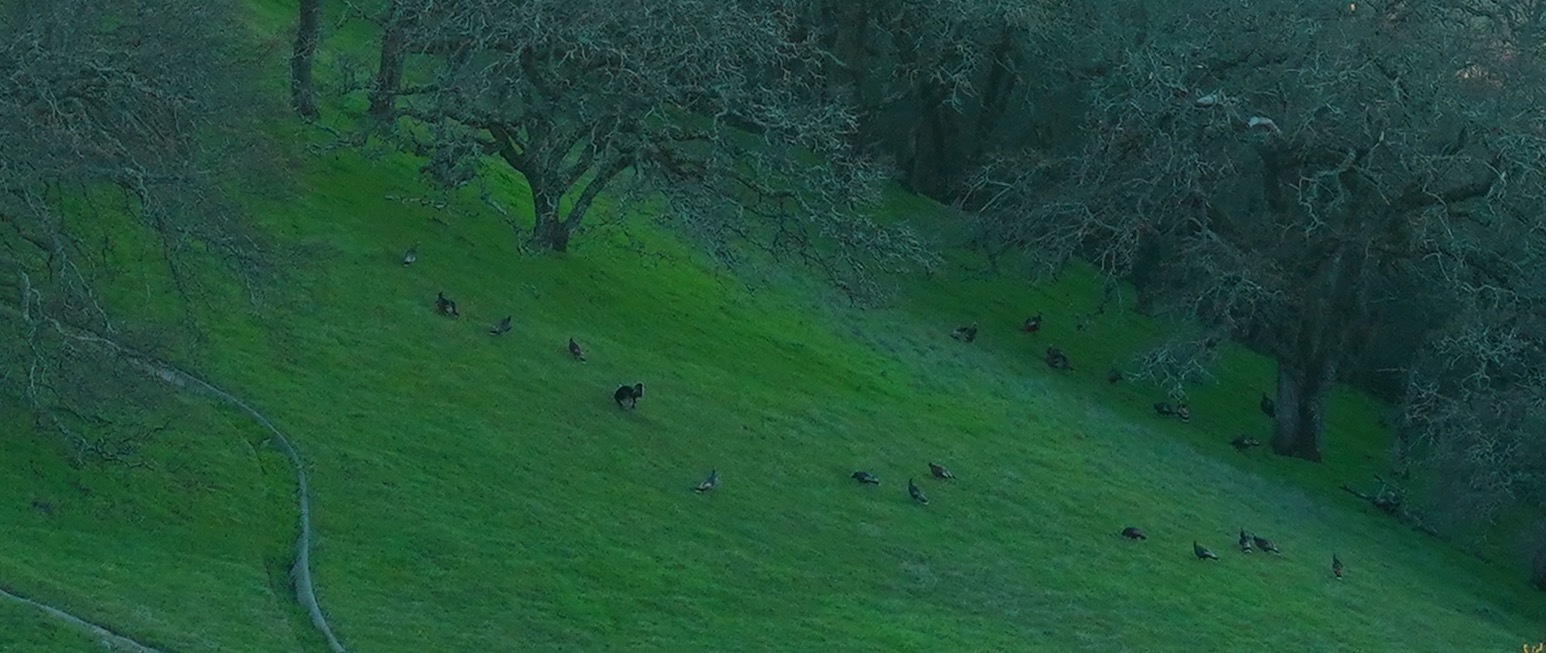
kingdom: Animalia
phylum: Chordata
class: Aves
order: Galliformes
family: Phasianidae
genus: Meleagris
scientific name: Meleagris gallopavo
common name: Wild turkey
